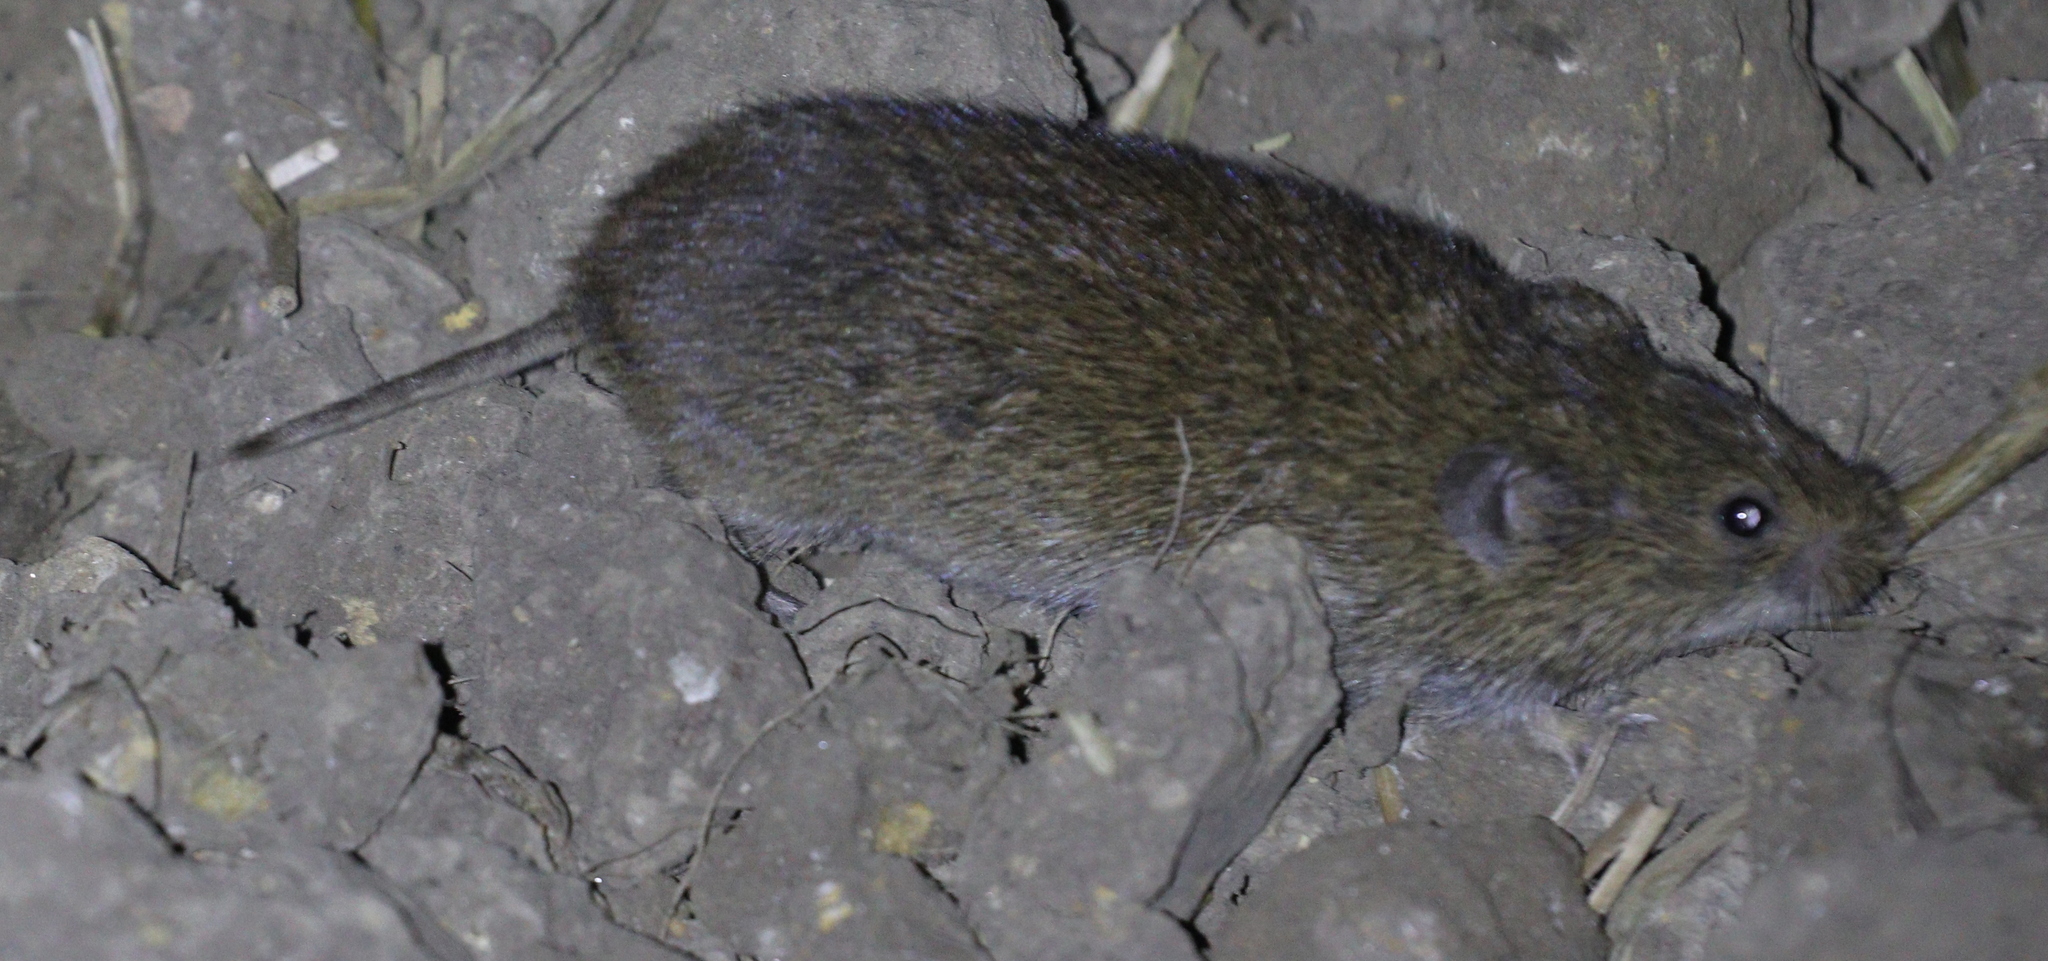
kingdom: Animalia
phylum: Chordata
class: Mammalia
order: Rodentia
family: Cricetidae
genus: Microtus
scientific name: Microtus arvalis
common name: Common vole
